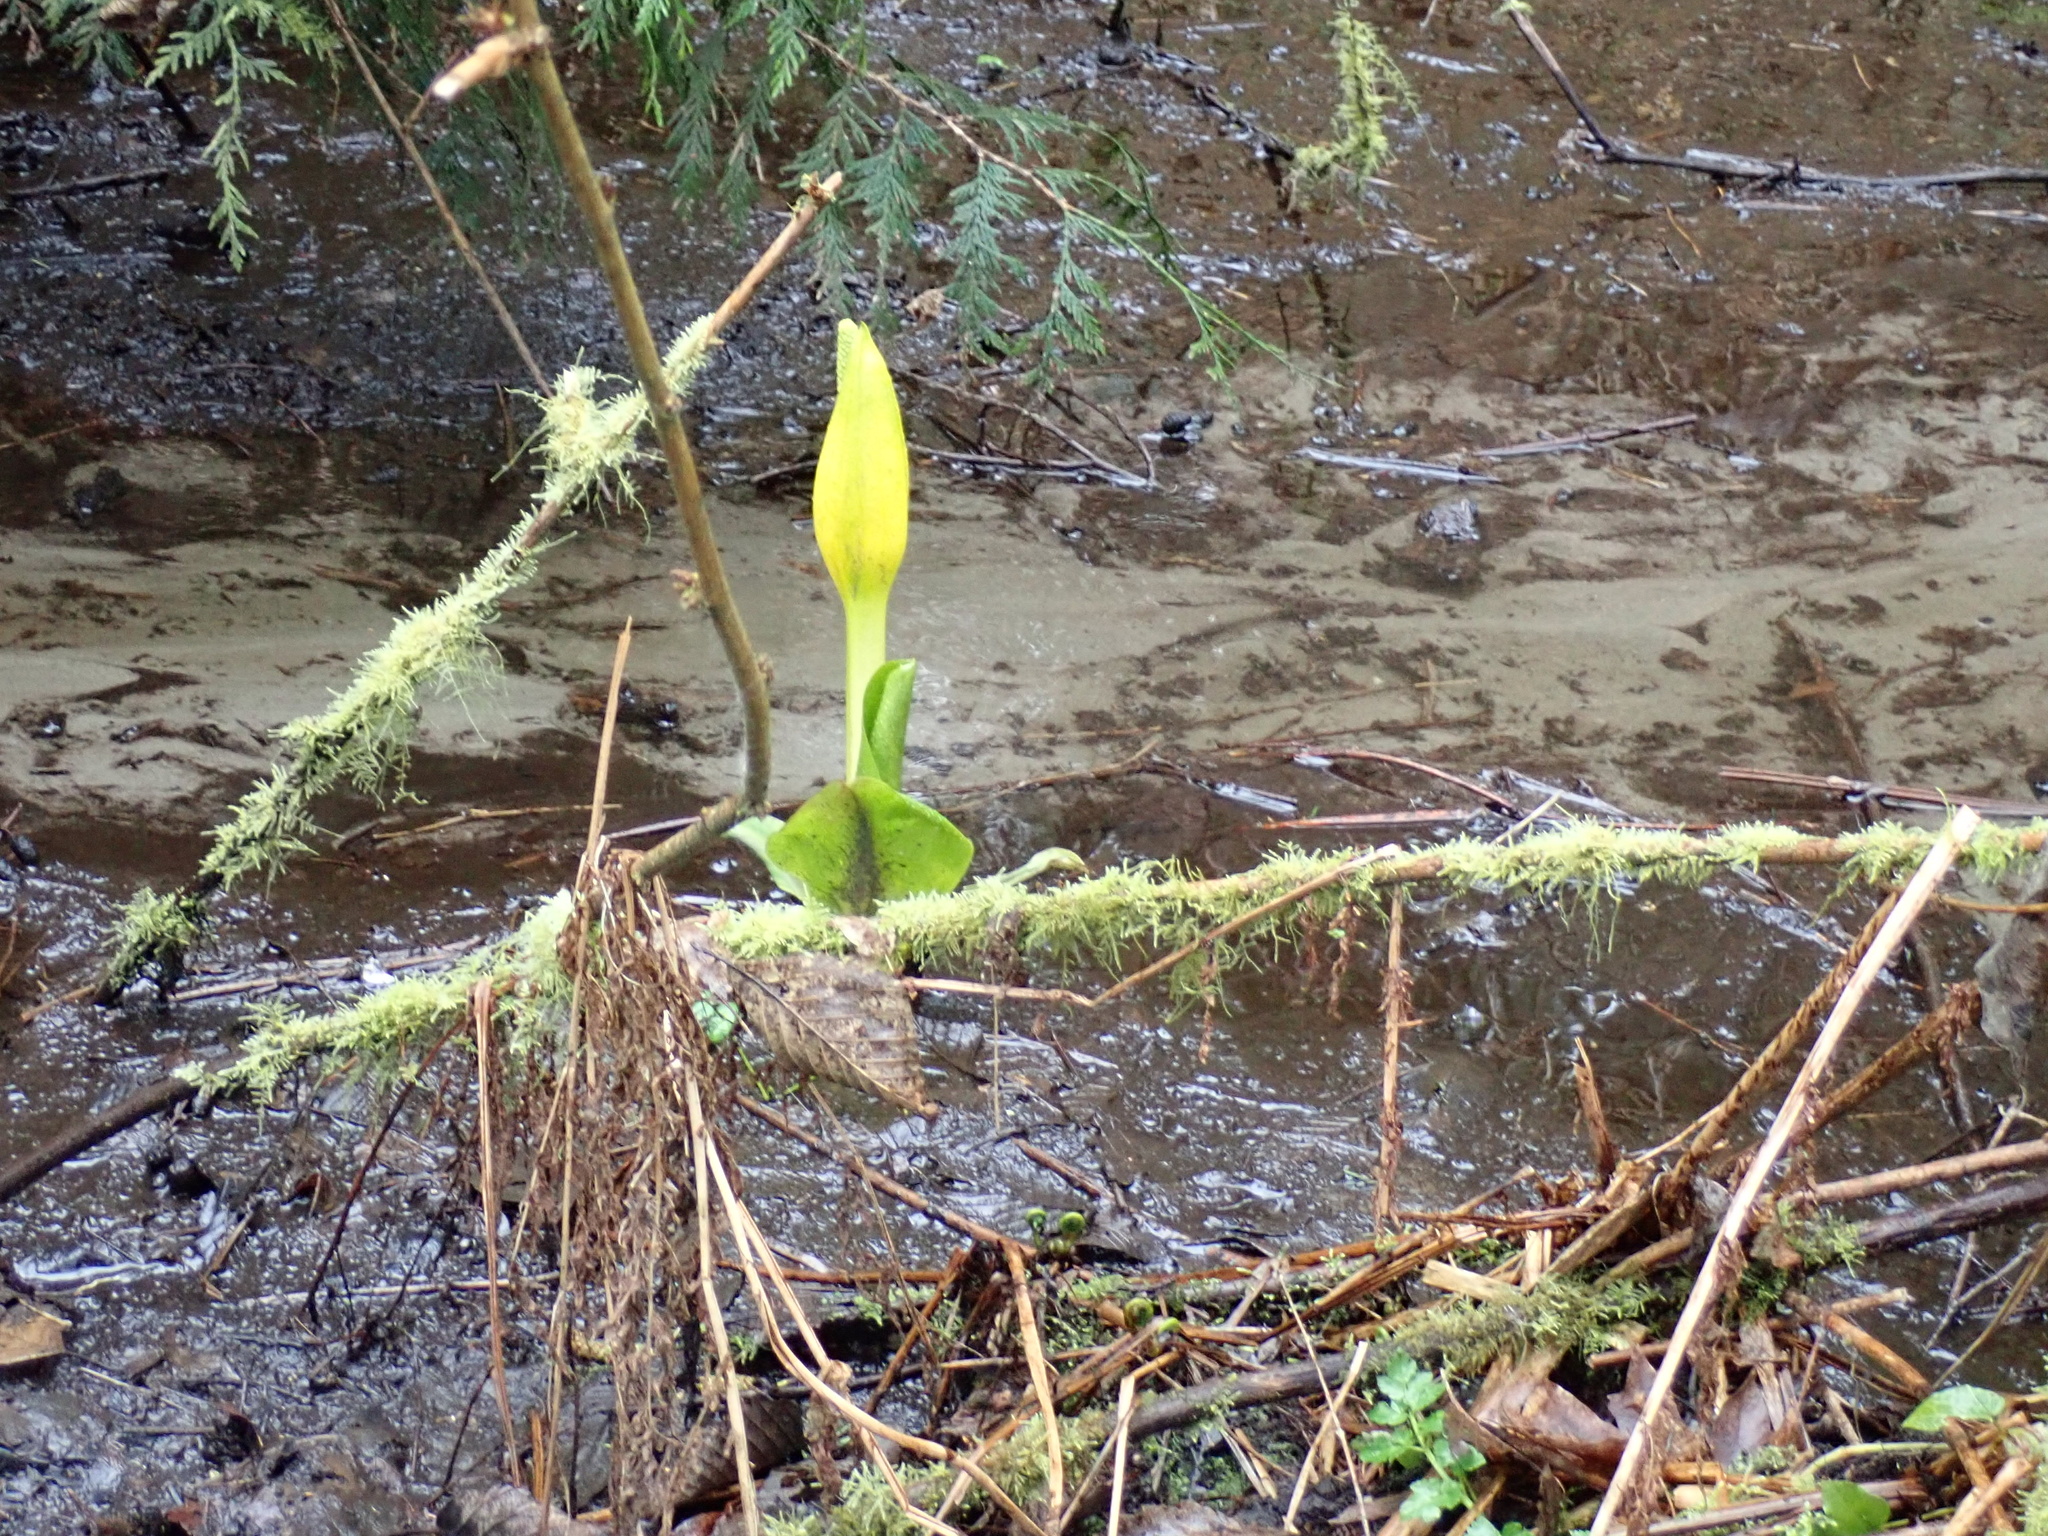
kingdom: Plantae
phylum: Tracheophyta
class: Liliopsida
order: Alismatales
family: Araceae
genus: Lysichiton
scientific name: Lysichiton americanus
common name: American skunk cabbage
